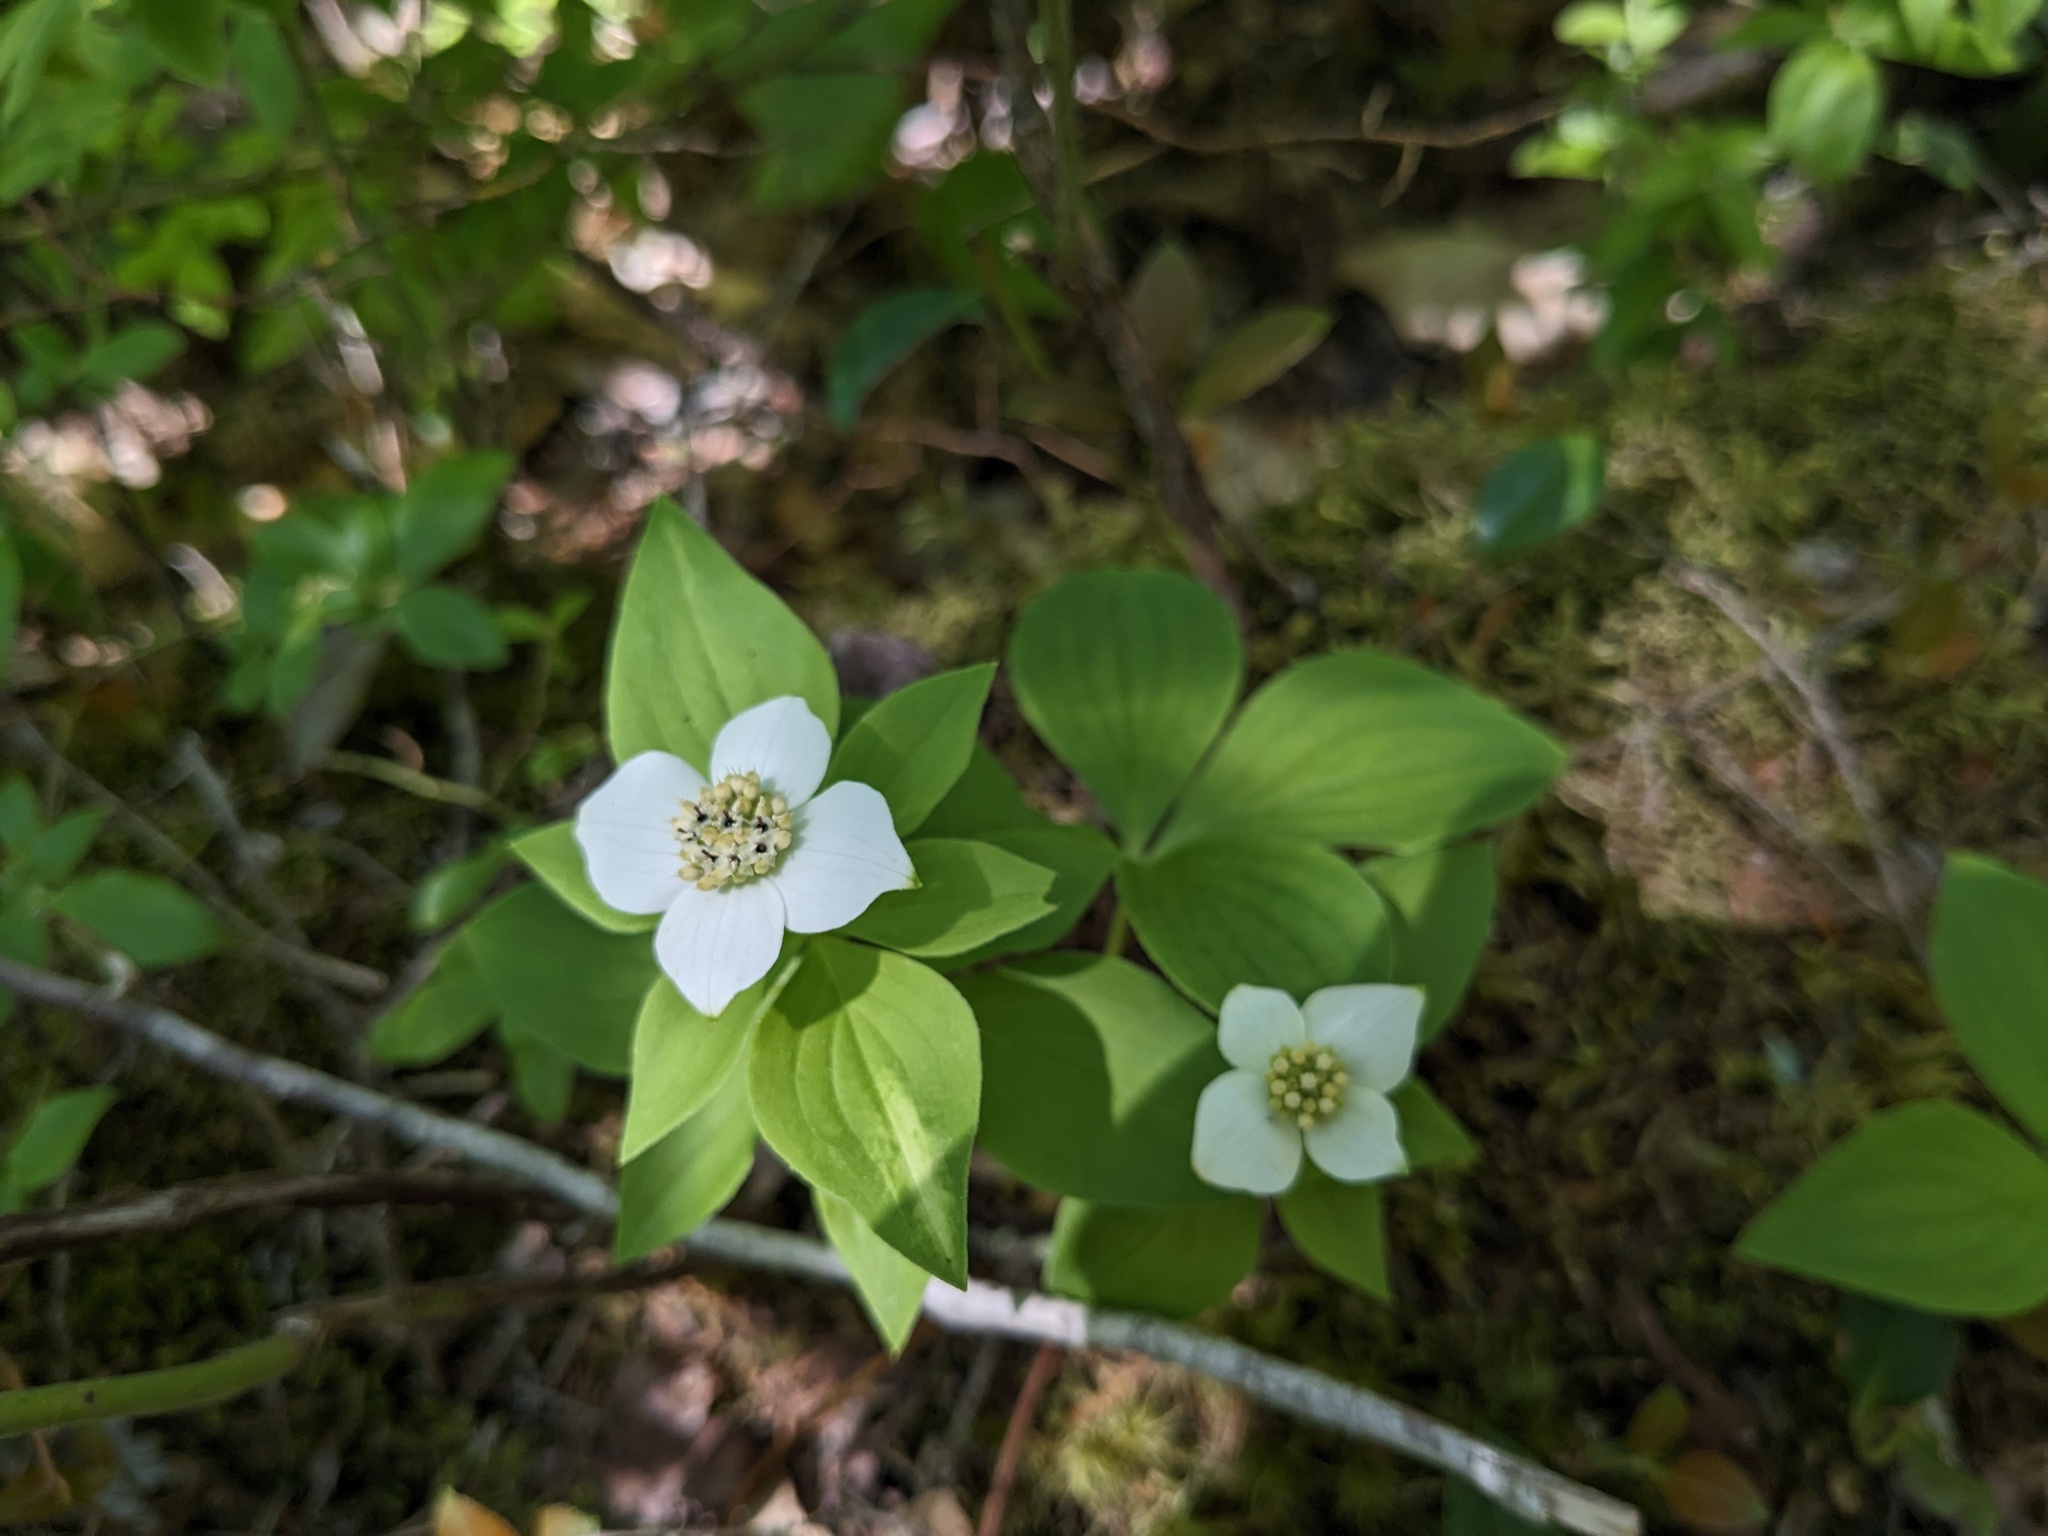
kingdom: Plantae
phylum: Tracheophyta
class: Magnoliopsida
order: Cornales
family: Cornaceae
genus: Cornus
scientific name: Cornus canadensis
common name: Creeping dogwood
